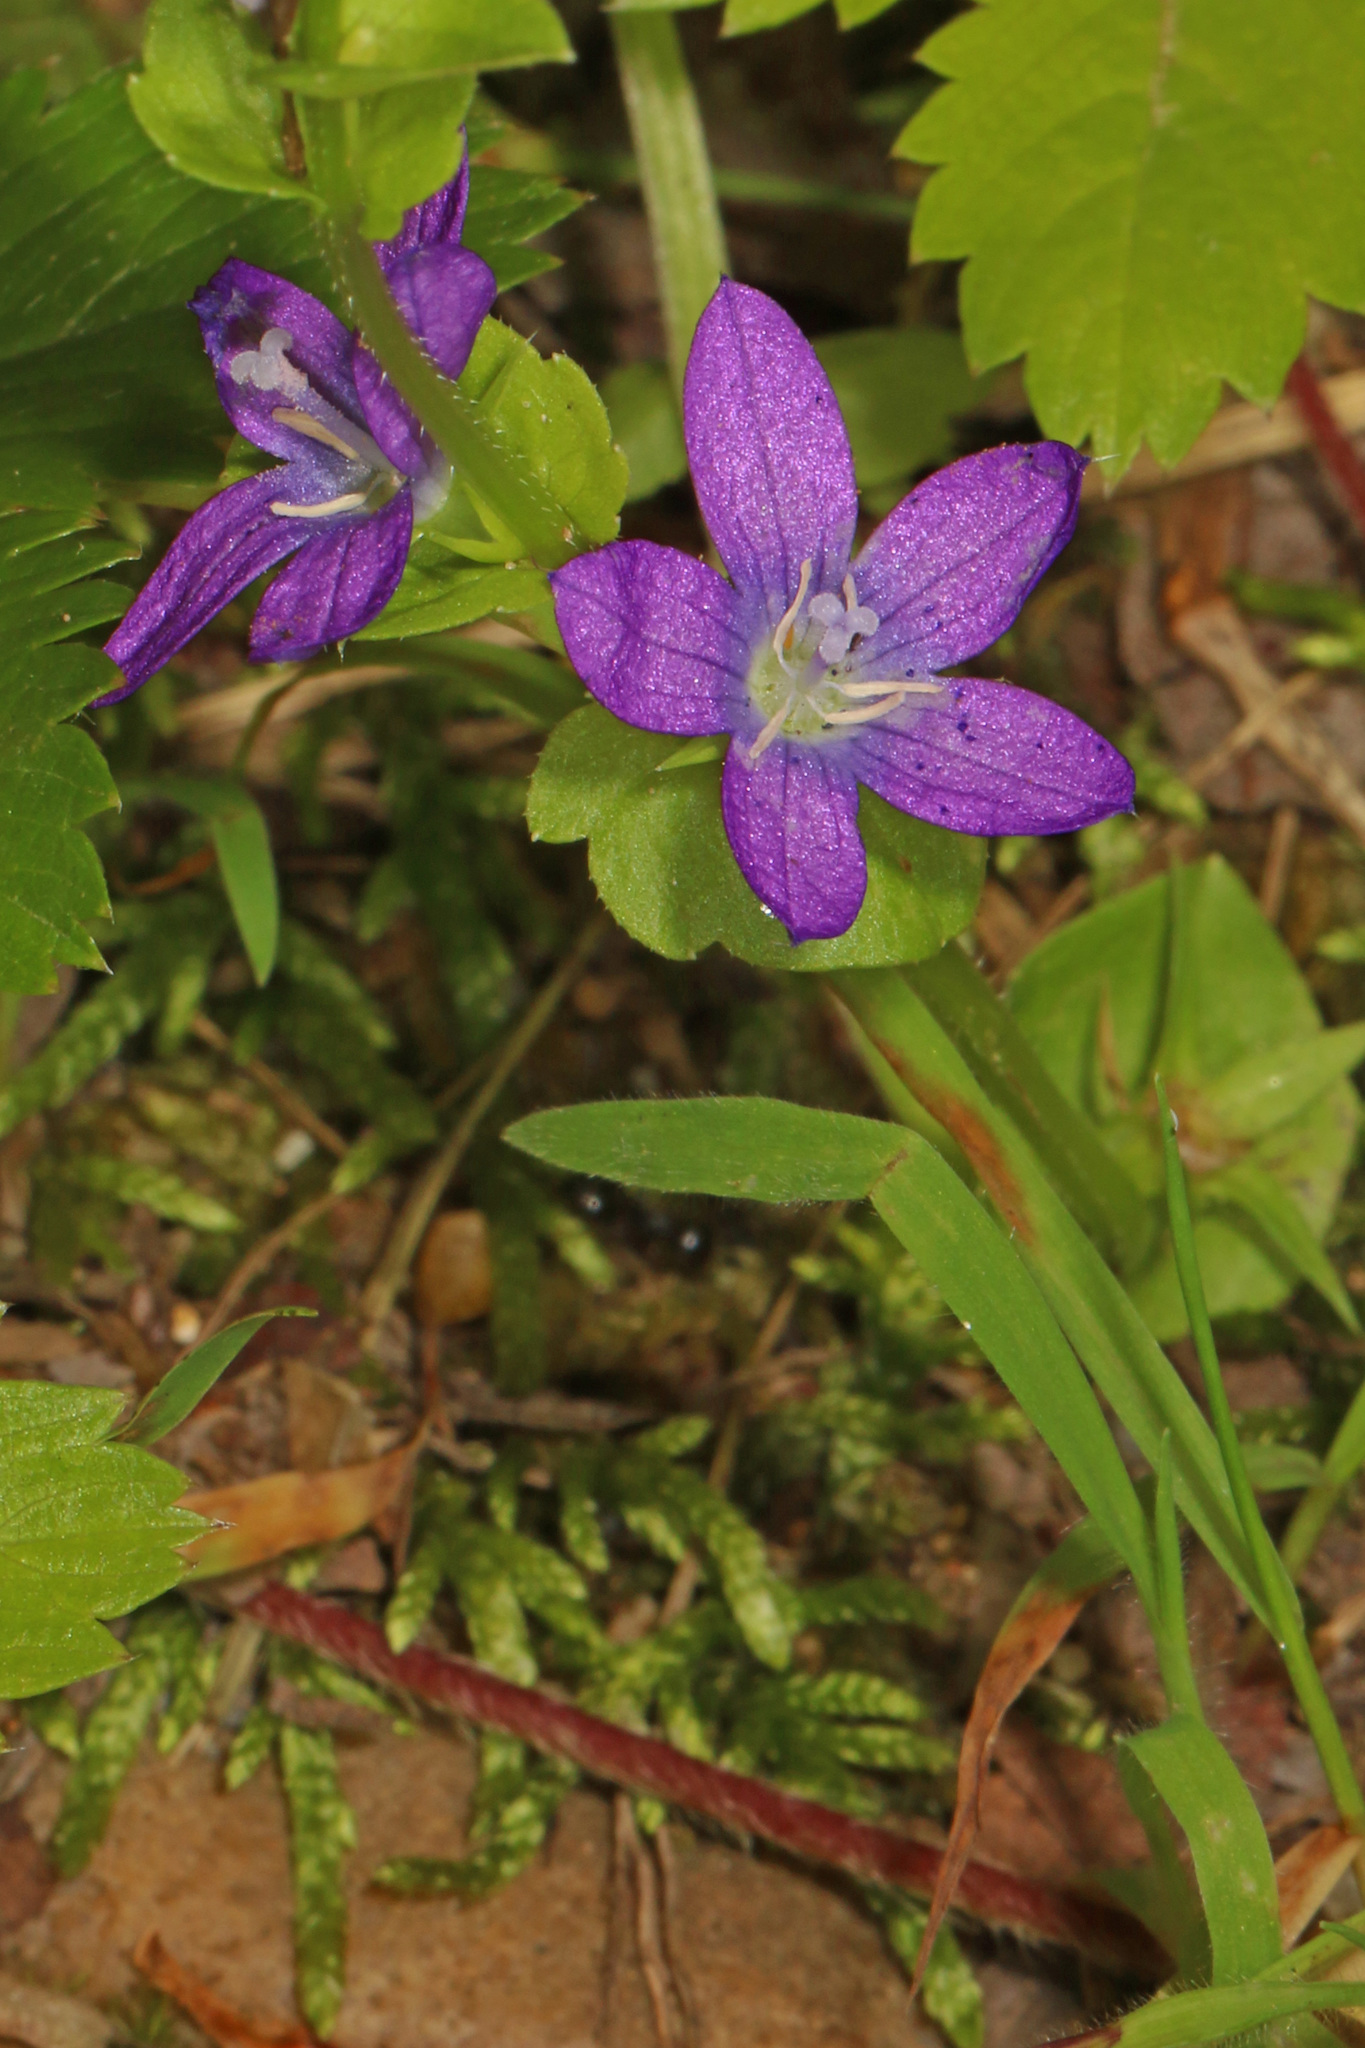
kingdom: Plantae
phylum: Tracheophyta
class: Magnoliopsida
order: Asterales
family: Campanulaceae
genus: Triodanis
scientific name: Triodanis perfoliata
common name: Clasping venus' looking-glass
